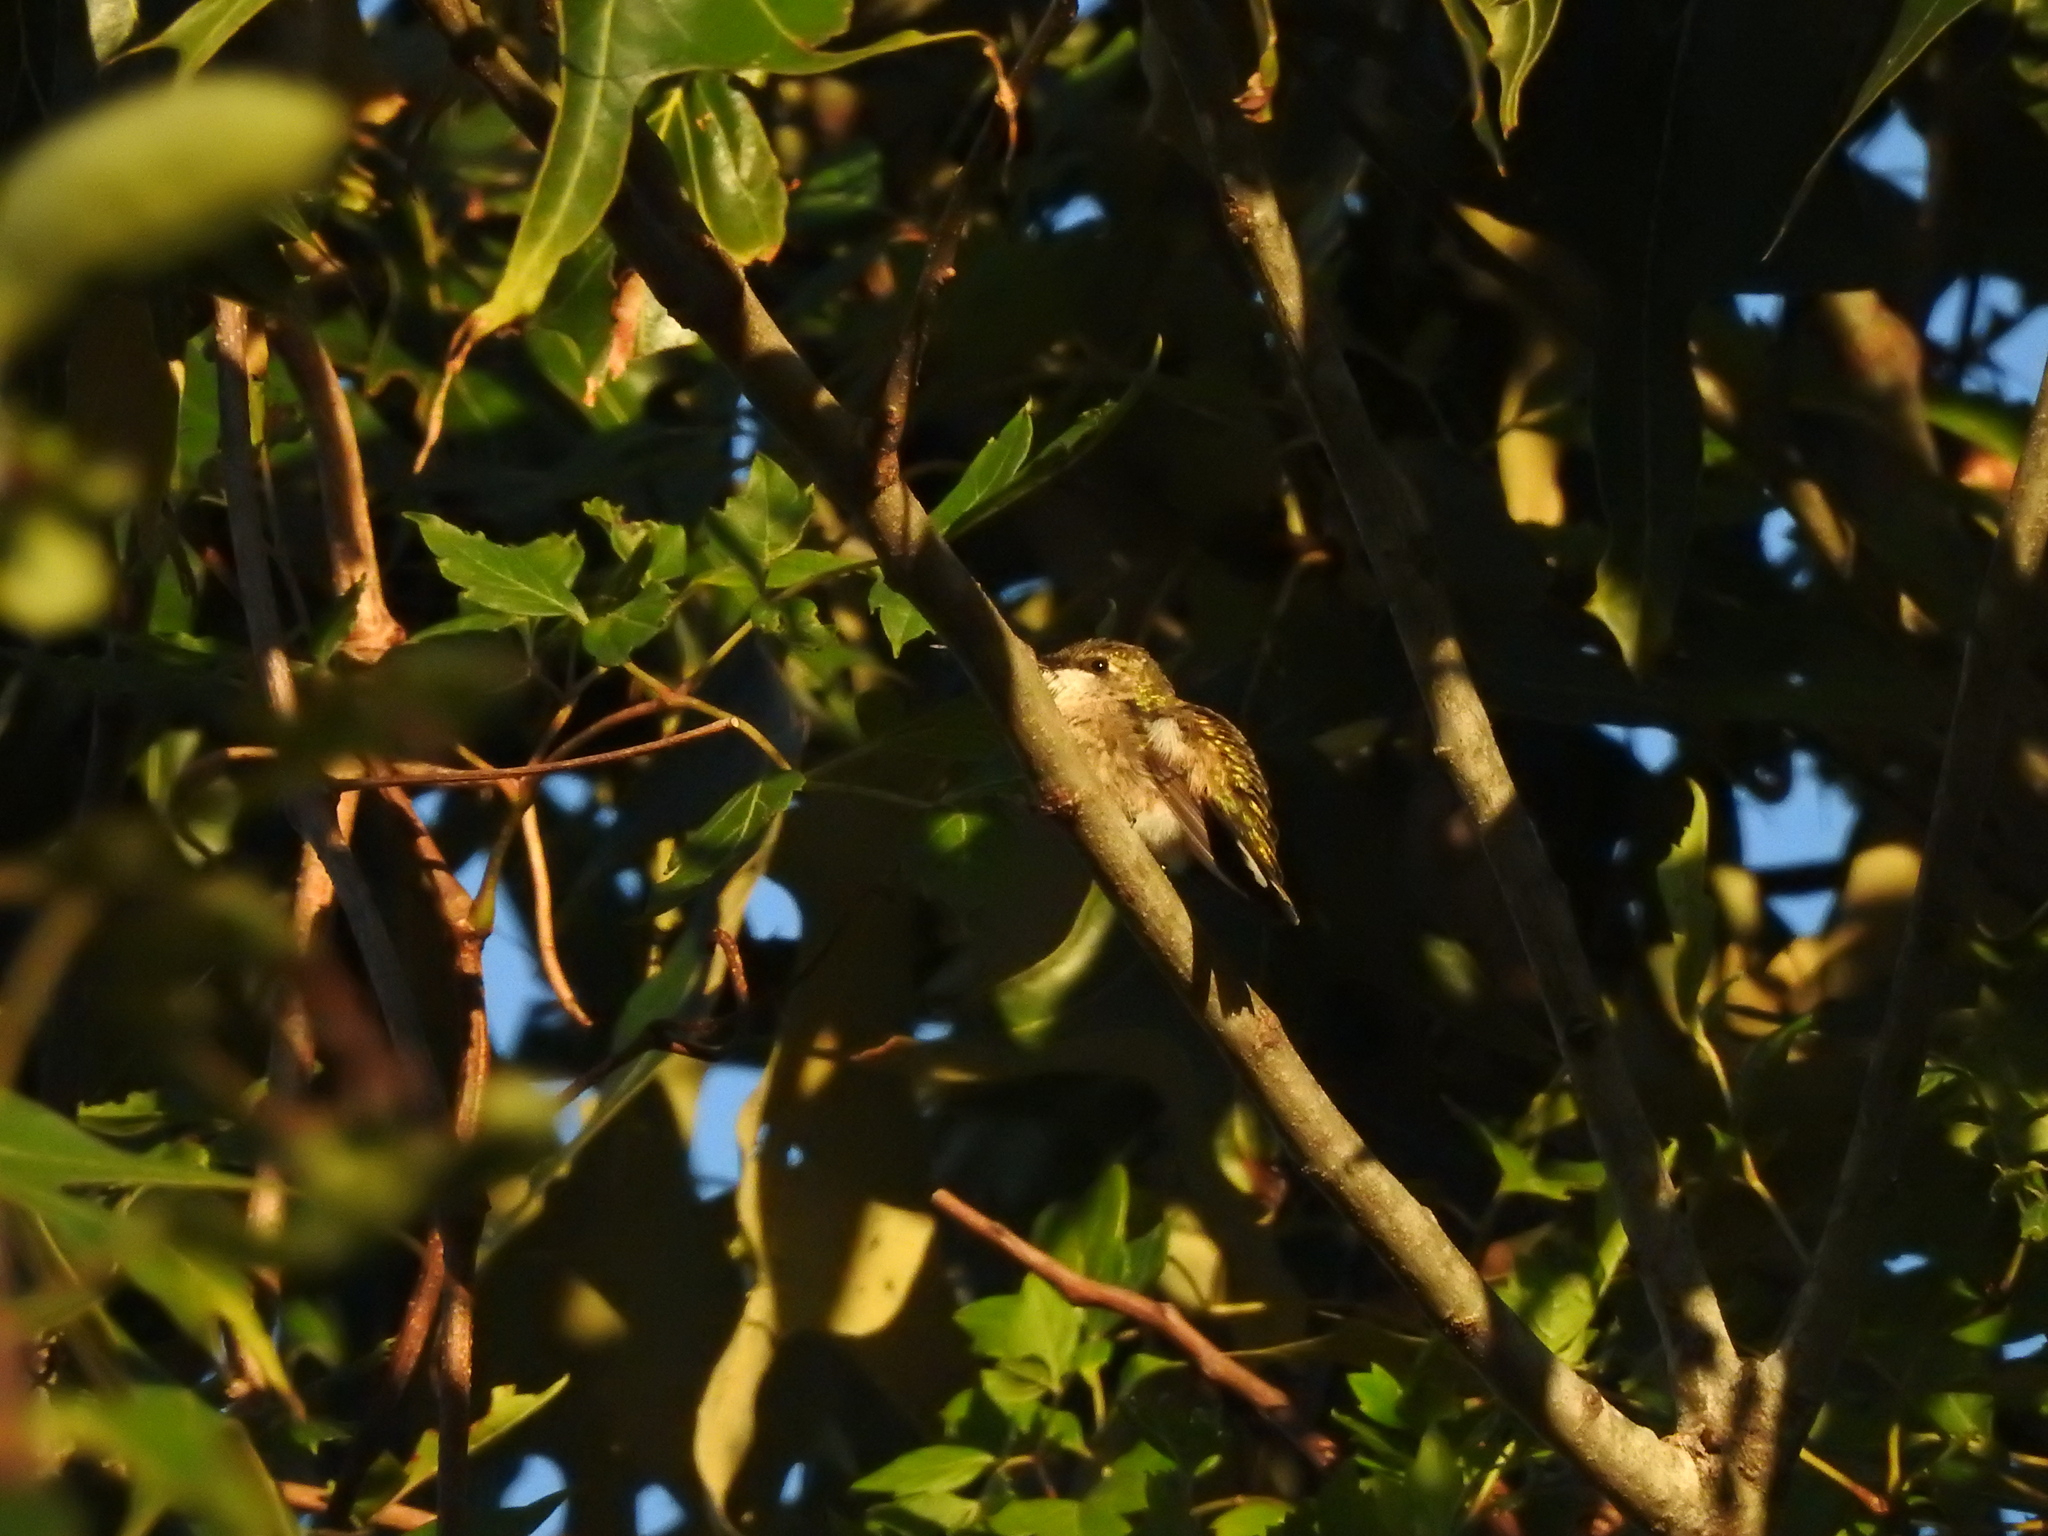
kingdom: Animalia
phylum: Chordata
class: Aves
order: Apodiformes
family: Trochilidae
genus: Archilochus
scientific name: Archilochus colubris
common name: Ruby-throated hummingbird
